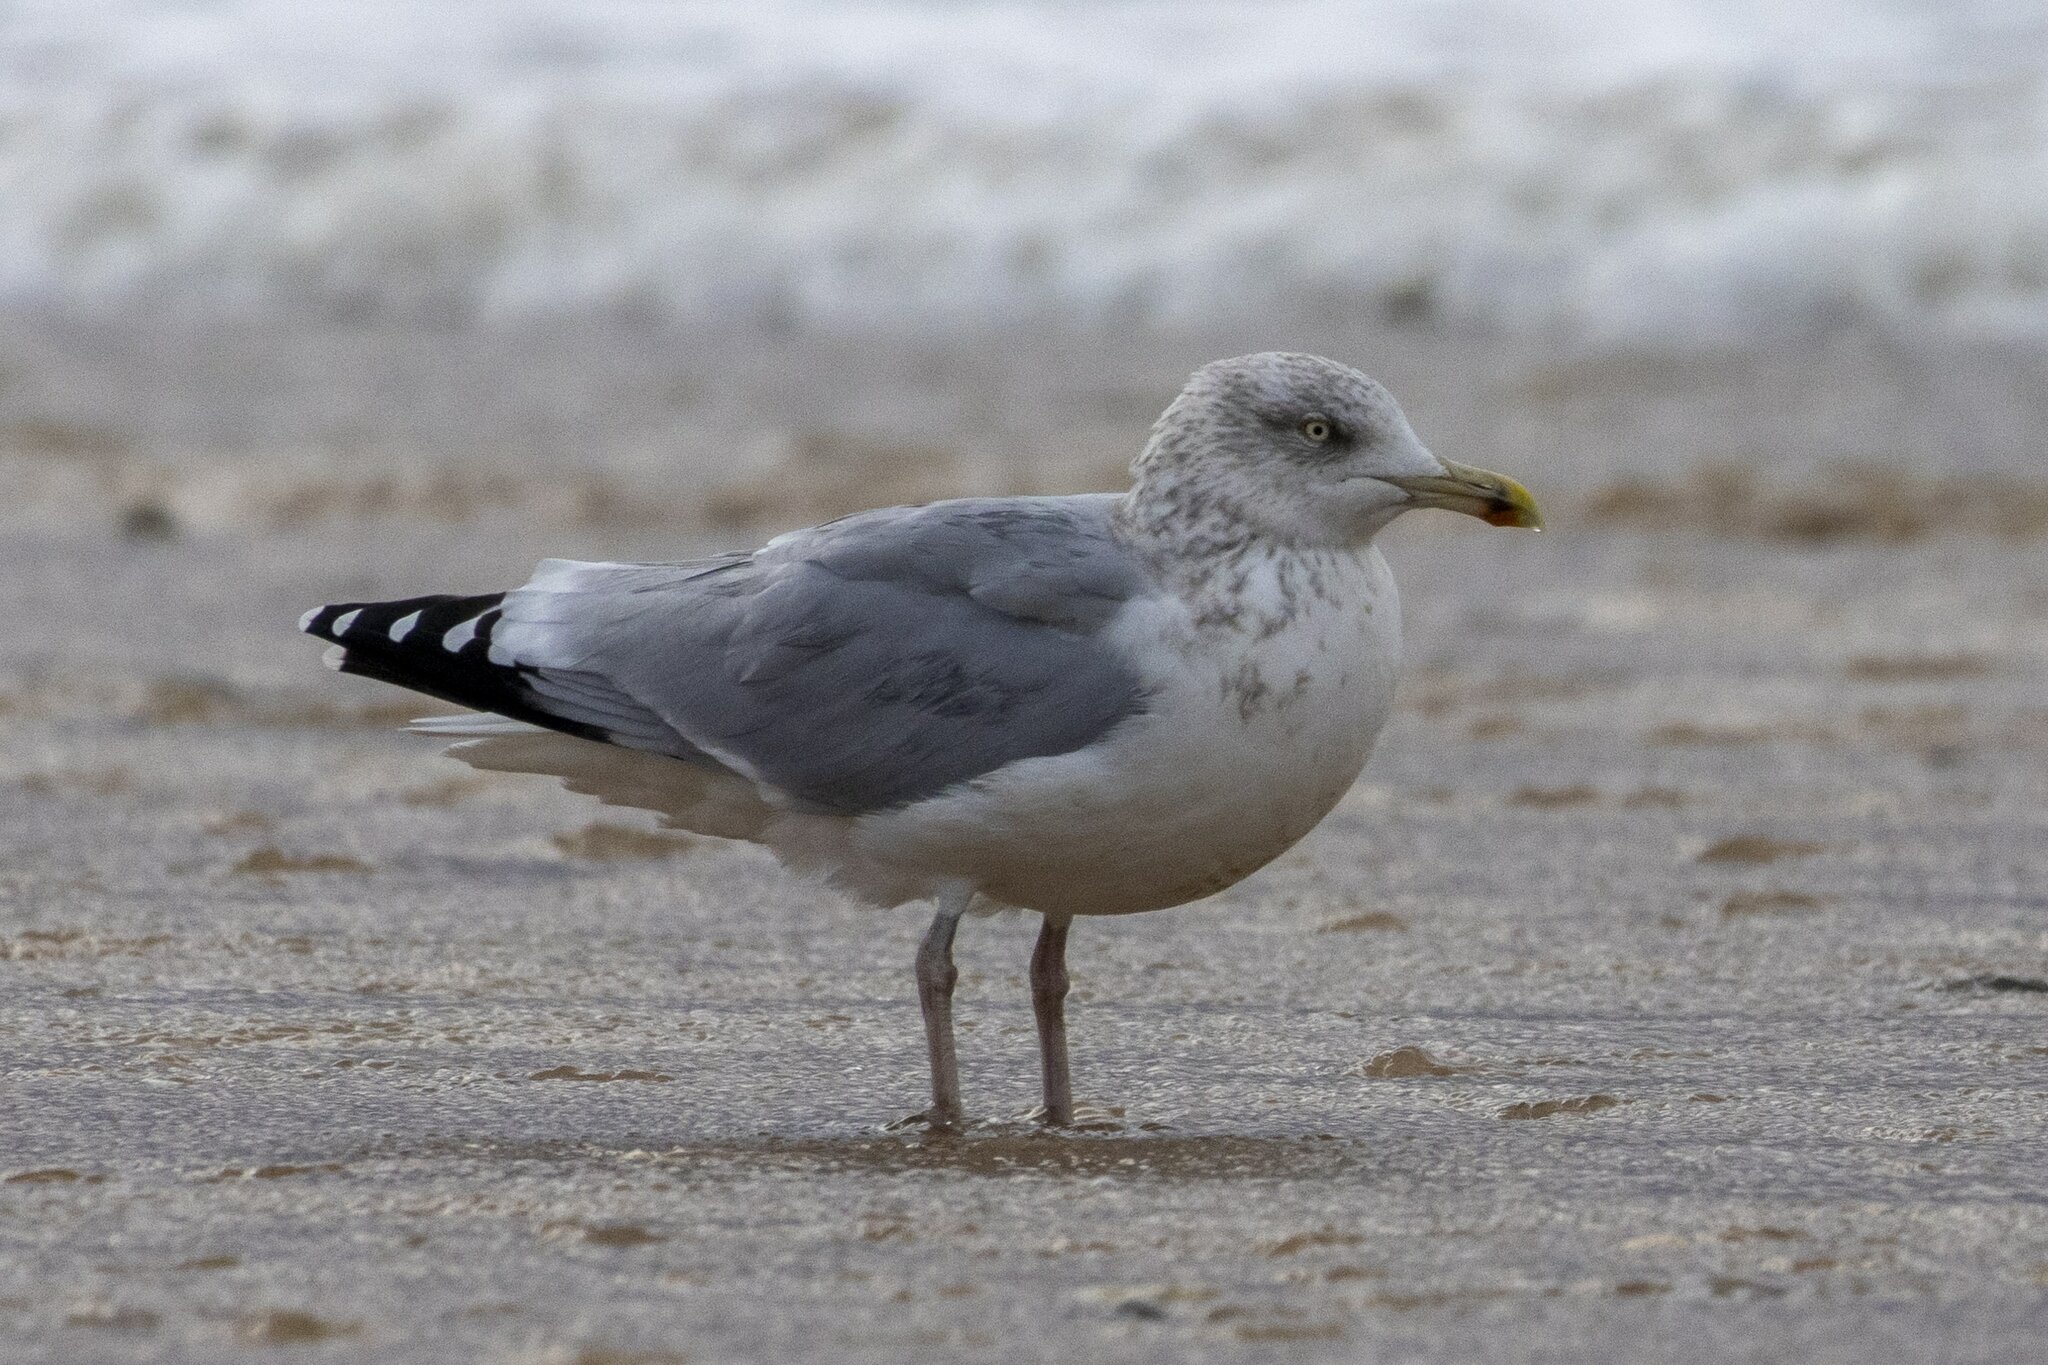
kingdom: Animalia
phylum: Chordata
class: Aves
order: Charadriiformes
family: Laridae
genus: Larus
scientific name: Larus argentatus
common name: Herring gull
